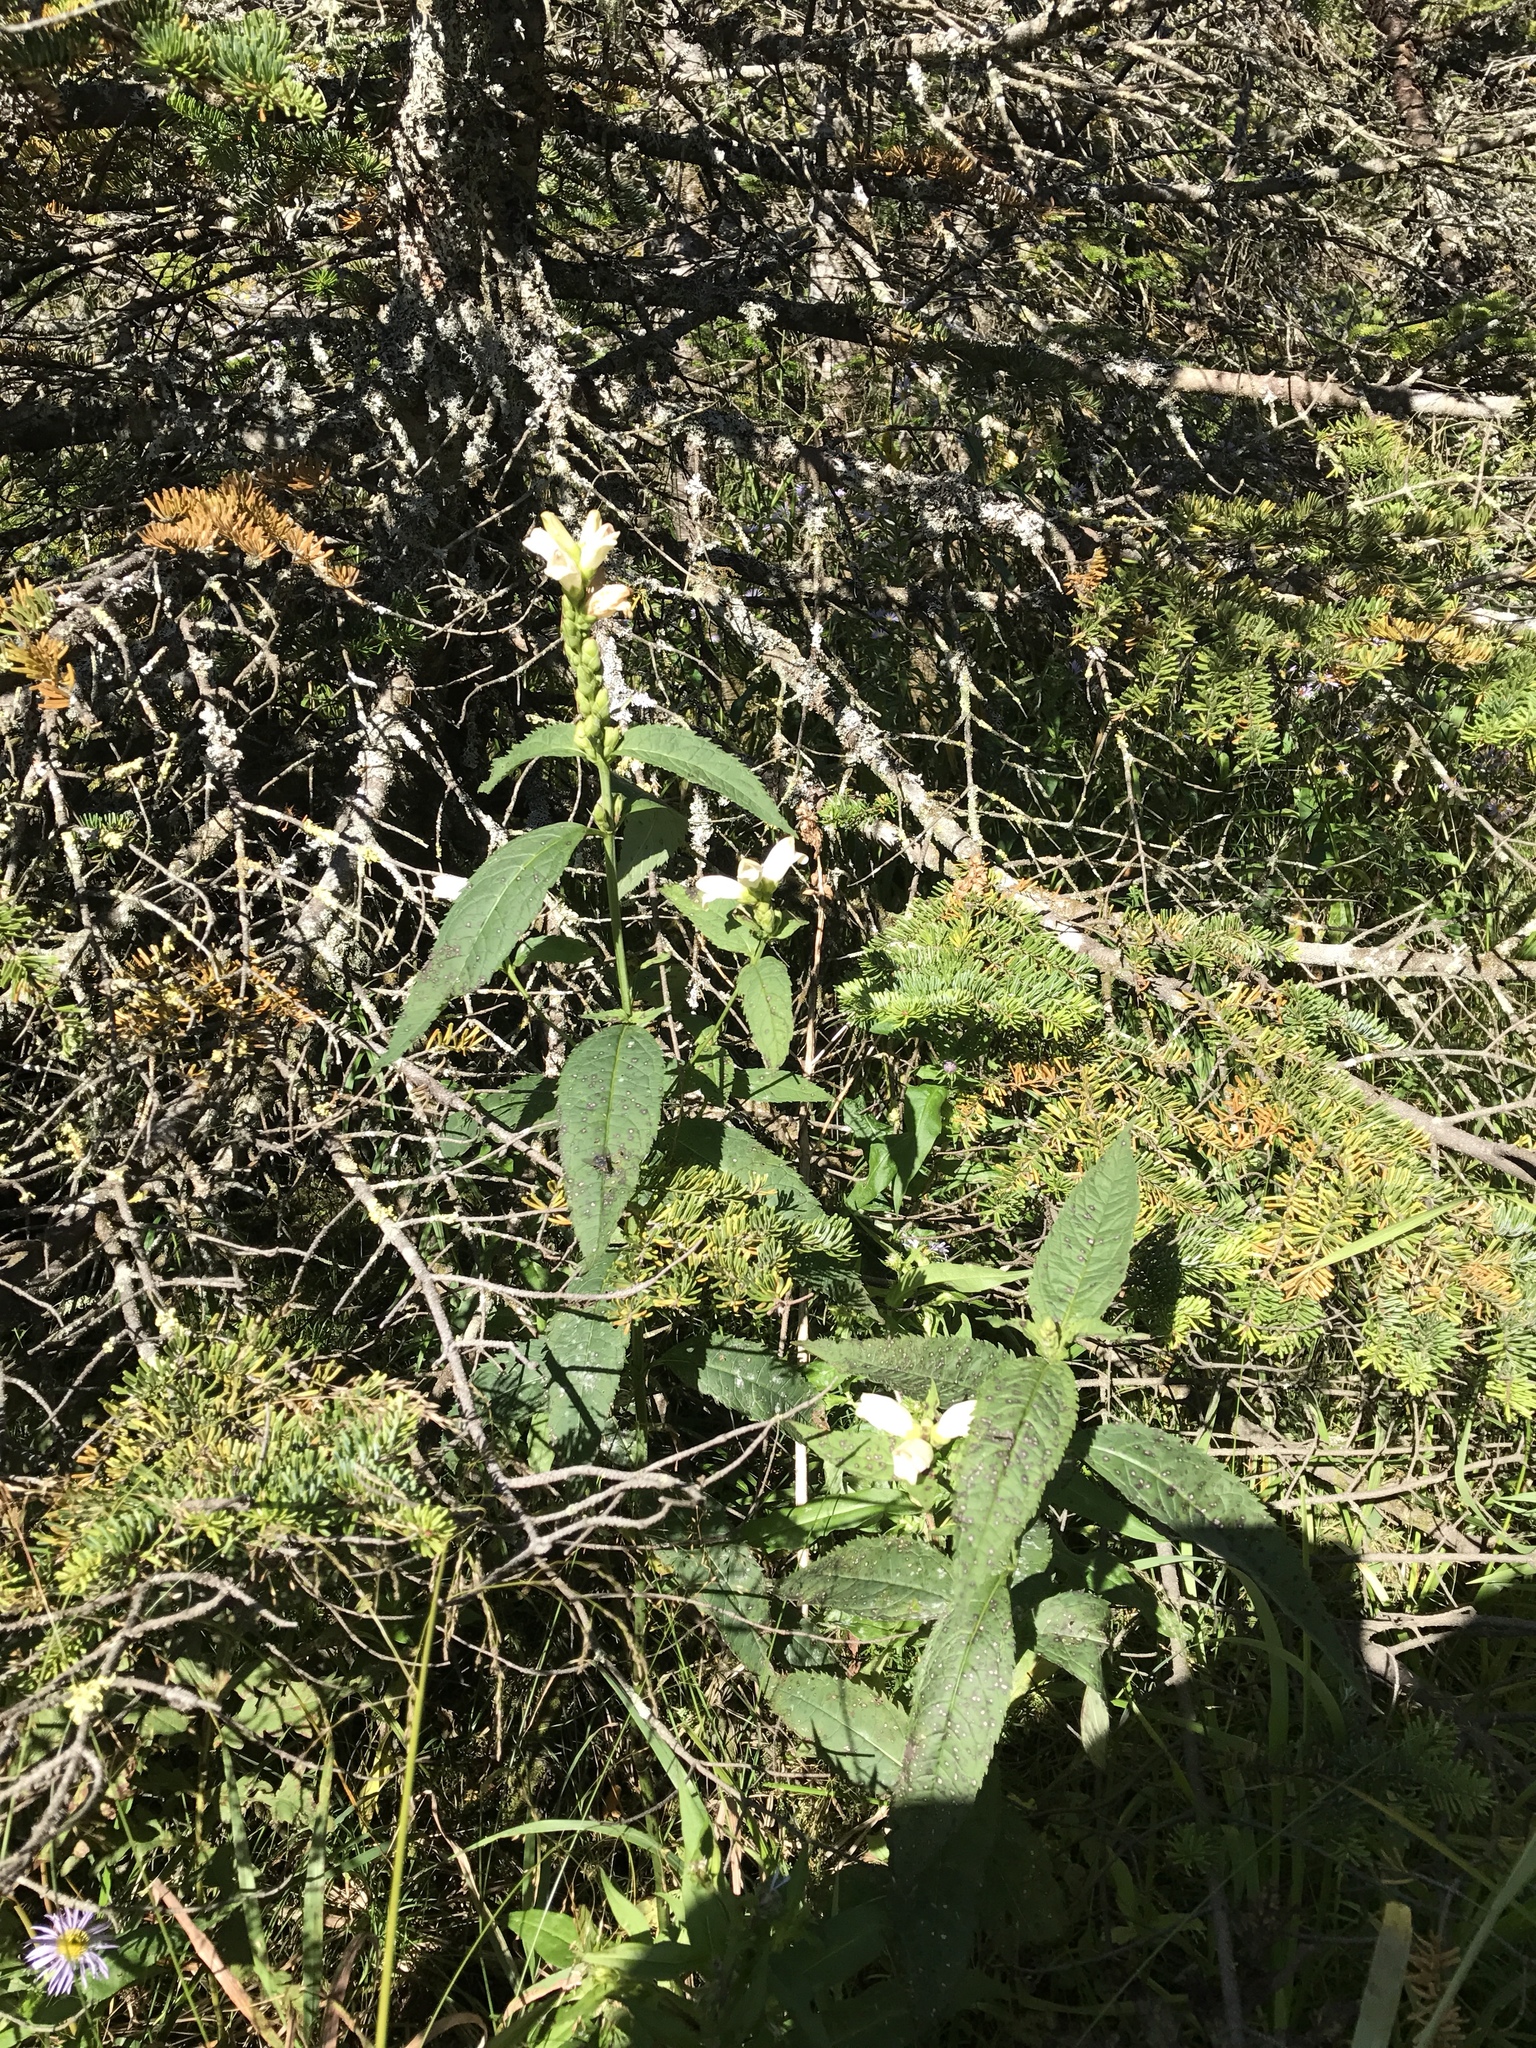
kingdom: Plantae
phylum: Tracheophyta
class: Magnoliopsida
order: Lamiales
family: Plantaginaceae
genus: Chelone
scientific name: Chelone glabra
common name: Snakehead
